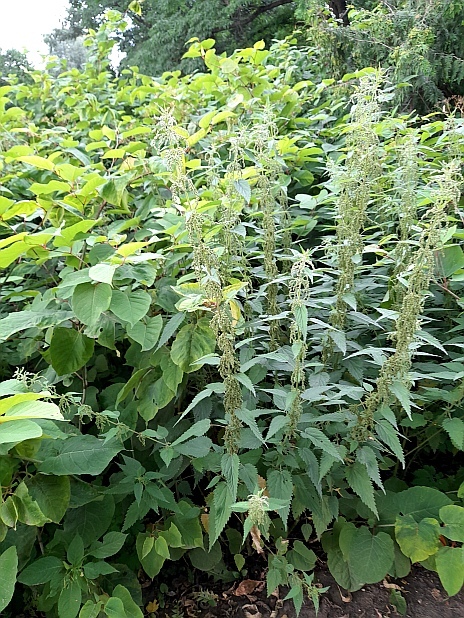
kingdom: Plantae
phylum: Tracheophyta
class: Magnoliopsida
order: Rosales
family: Urticaceae
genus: Urtica
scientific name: Urtica dioica
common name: Common nettle
